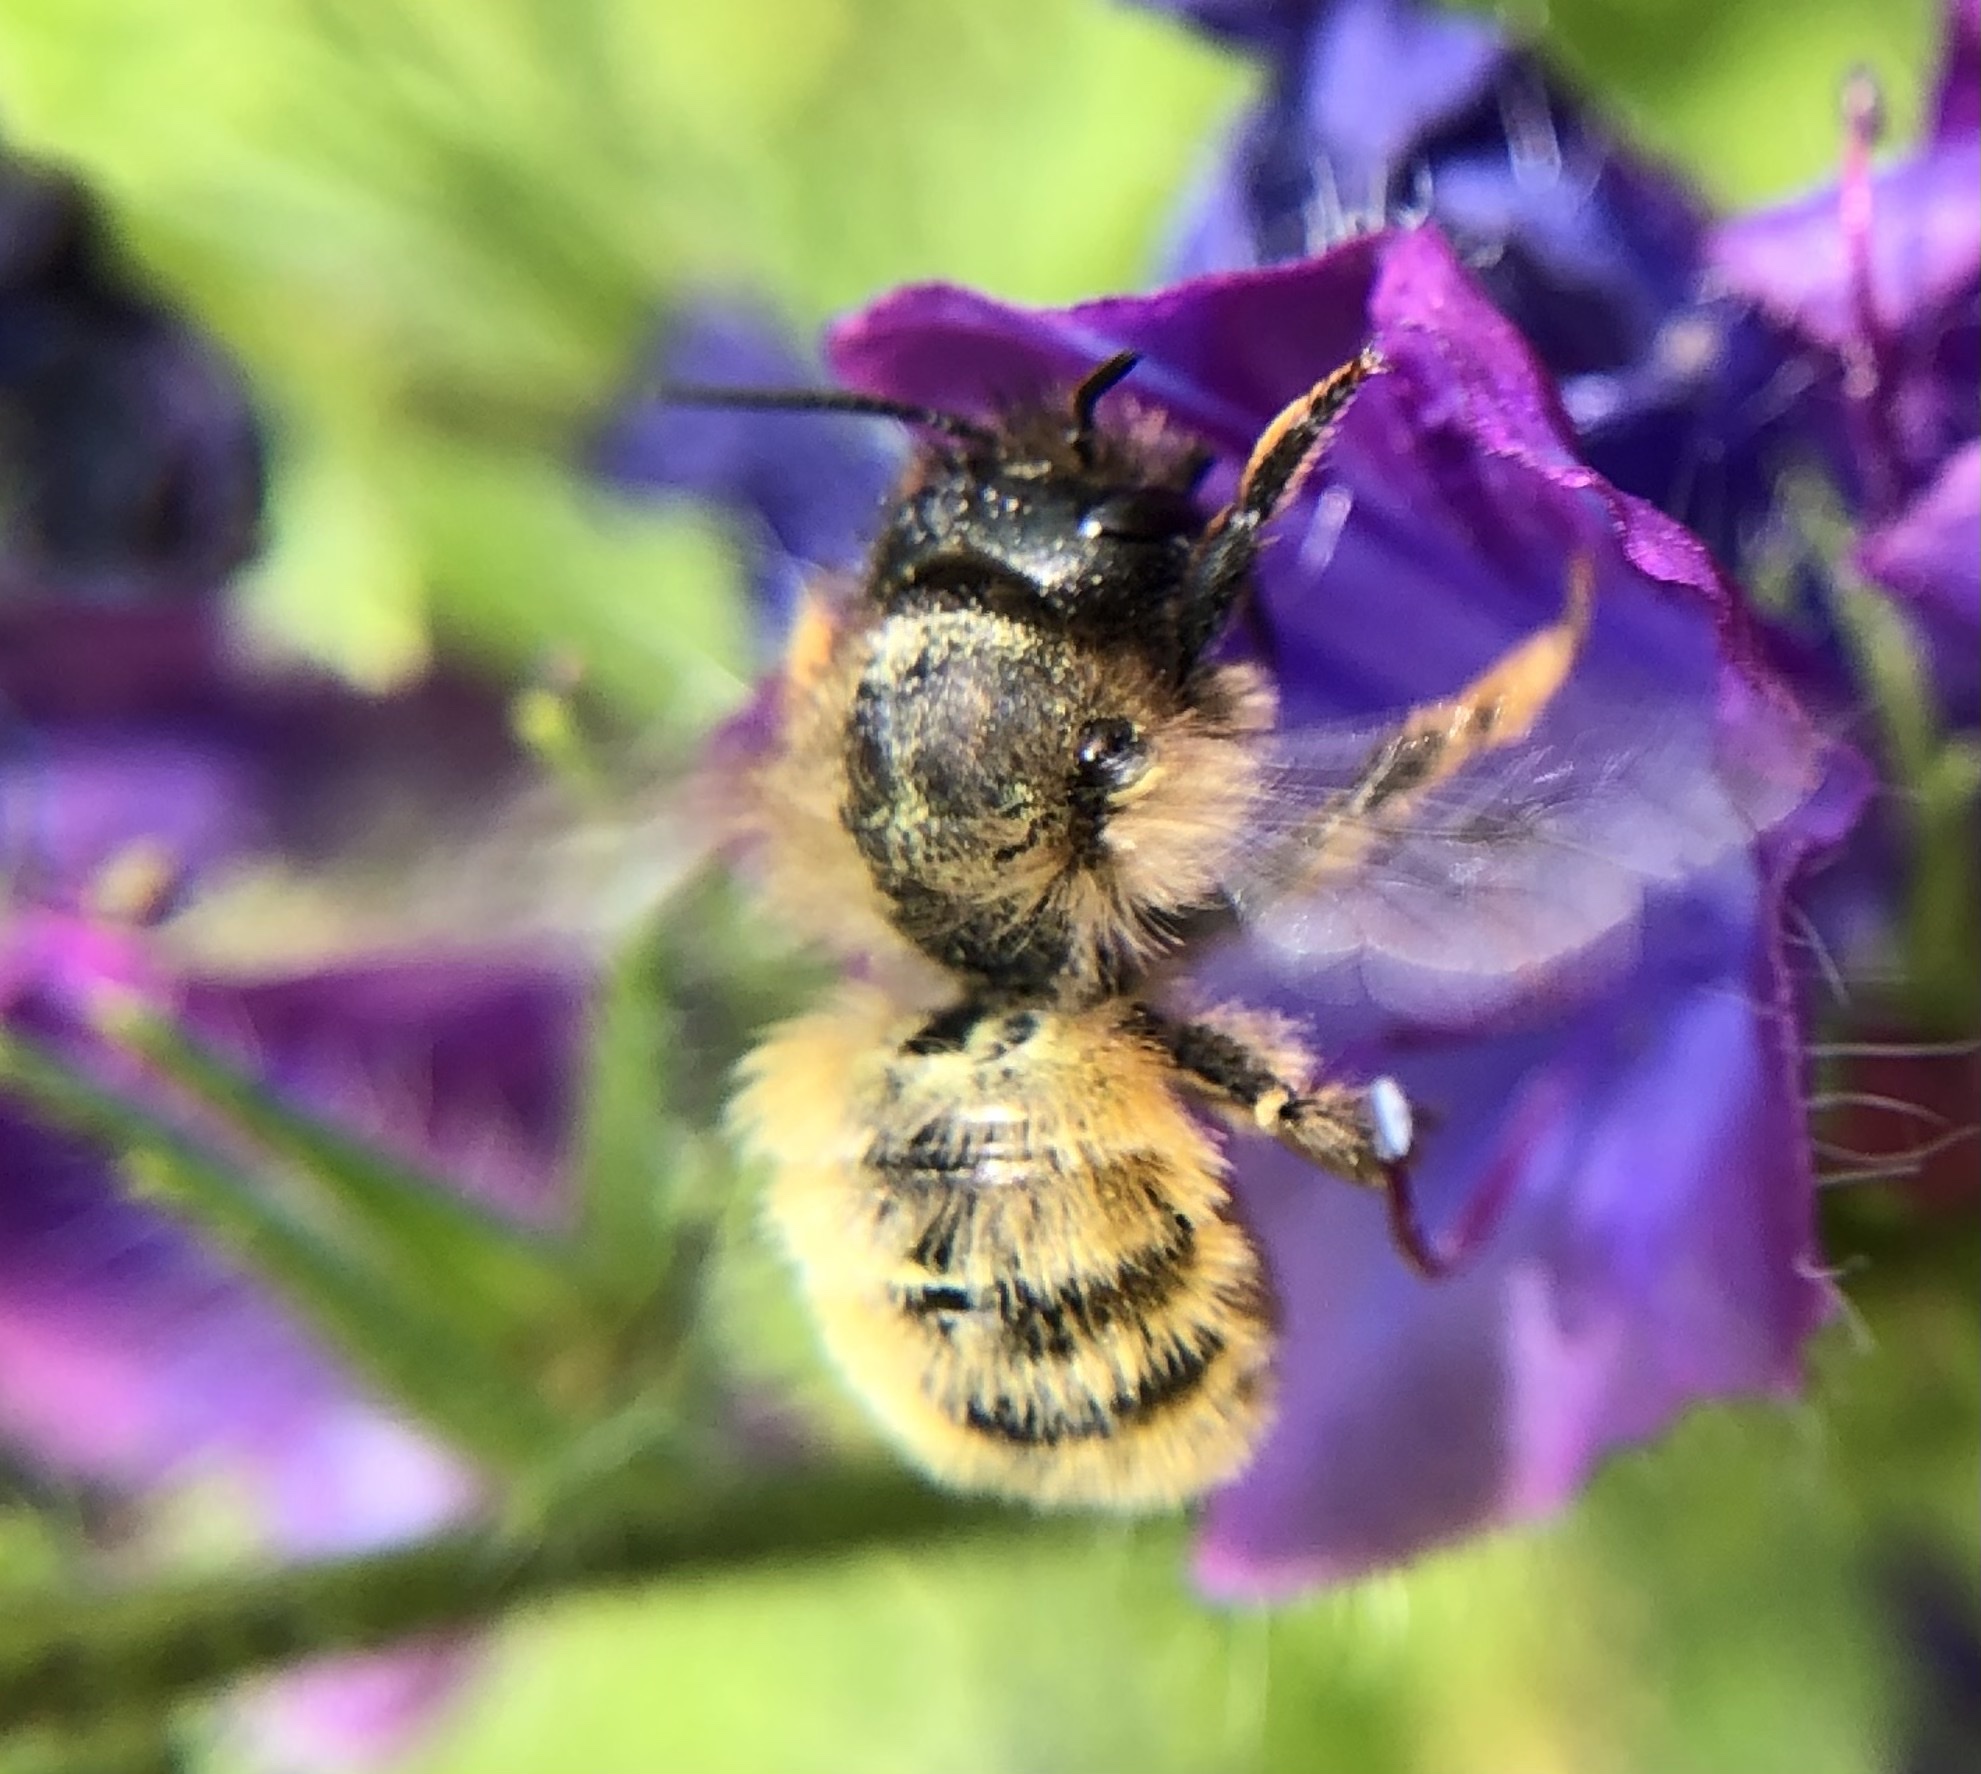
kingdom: Animalia
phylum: Arthropoda
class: Insecta
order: Hymenoptera
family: Megachilidae
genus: Osmia
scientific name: Osmia bicornis
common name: Red mason bee
